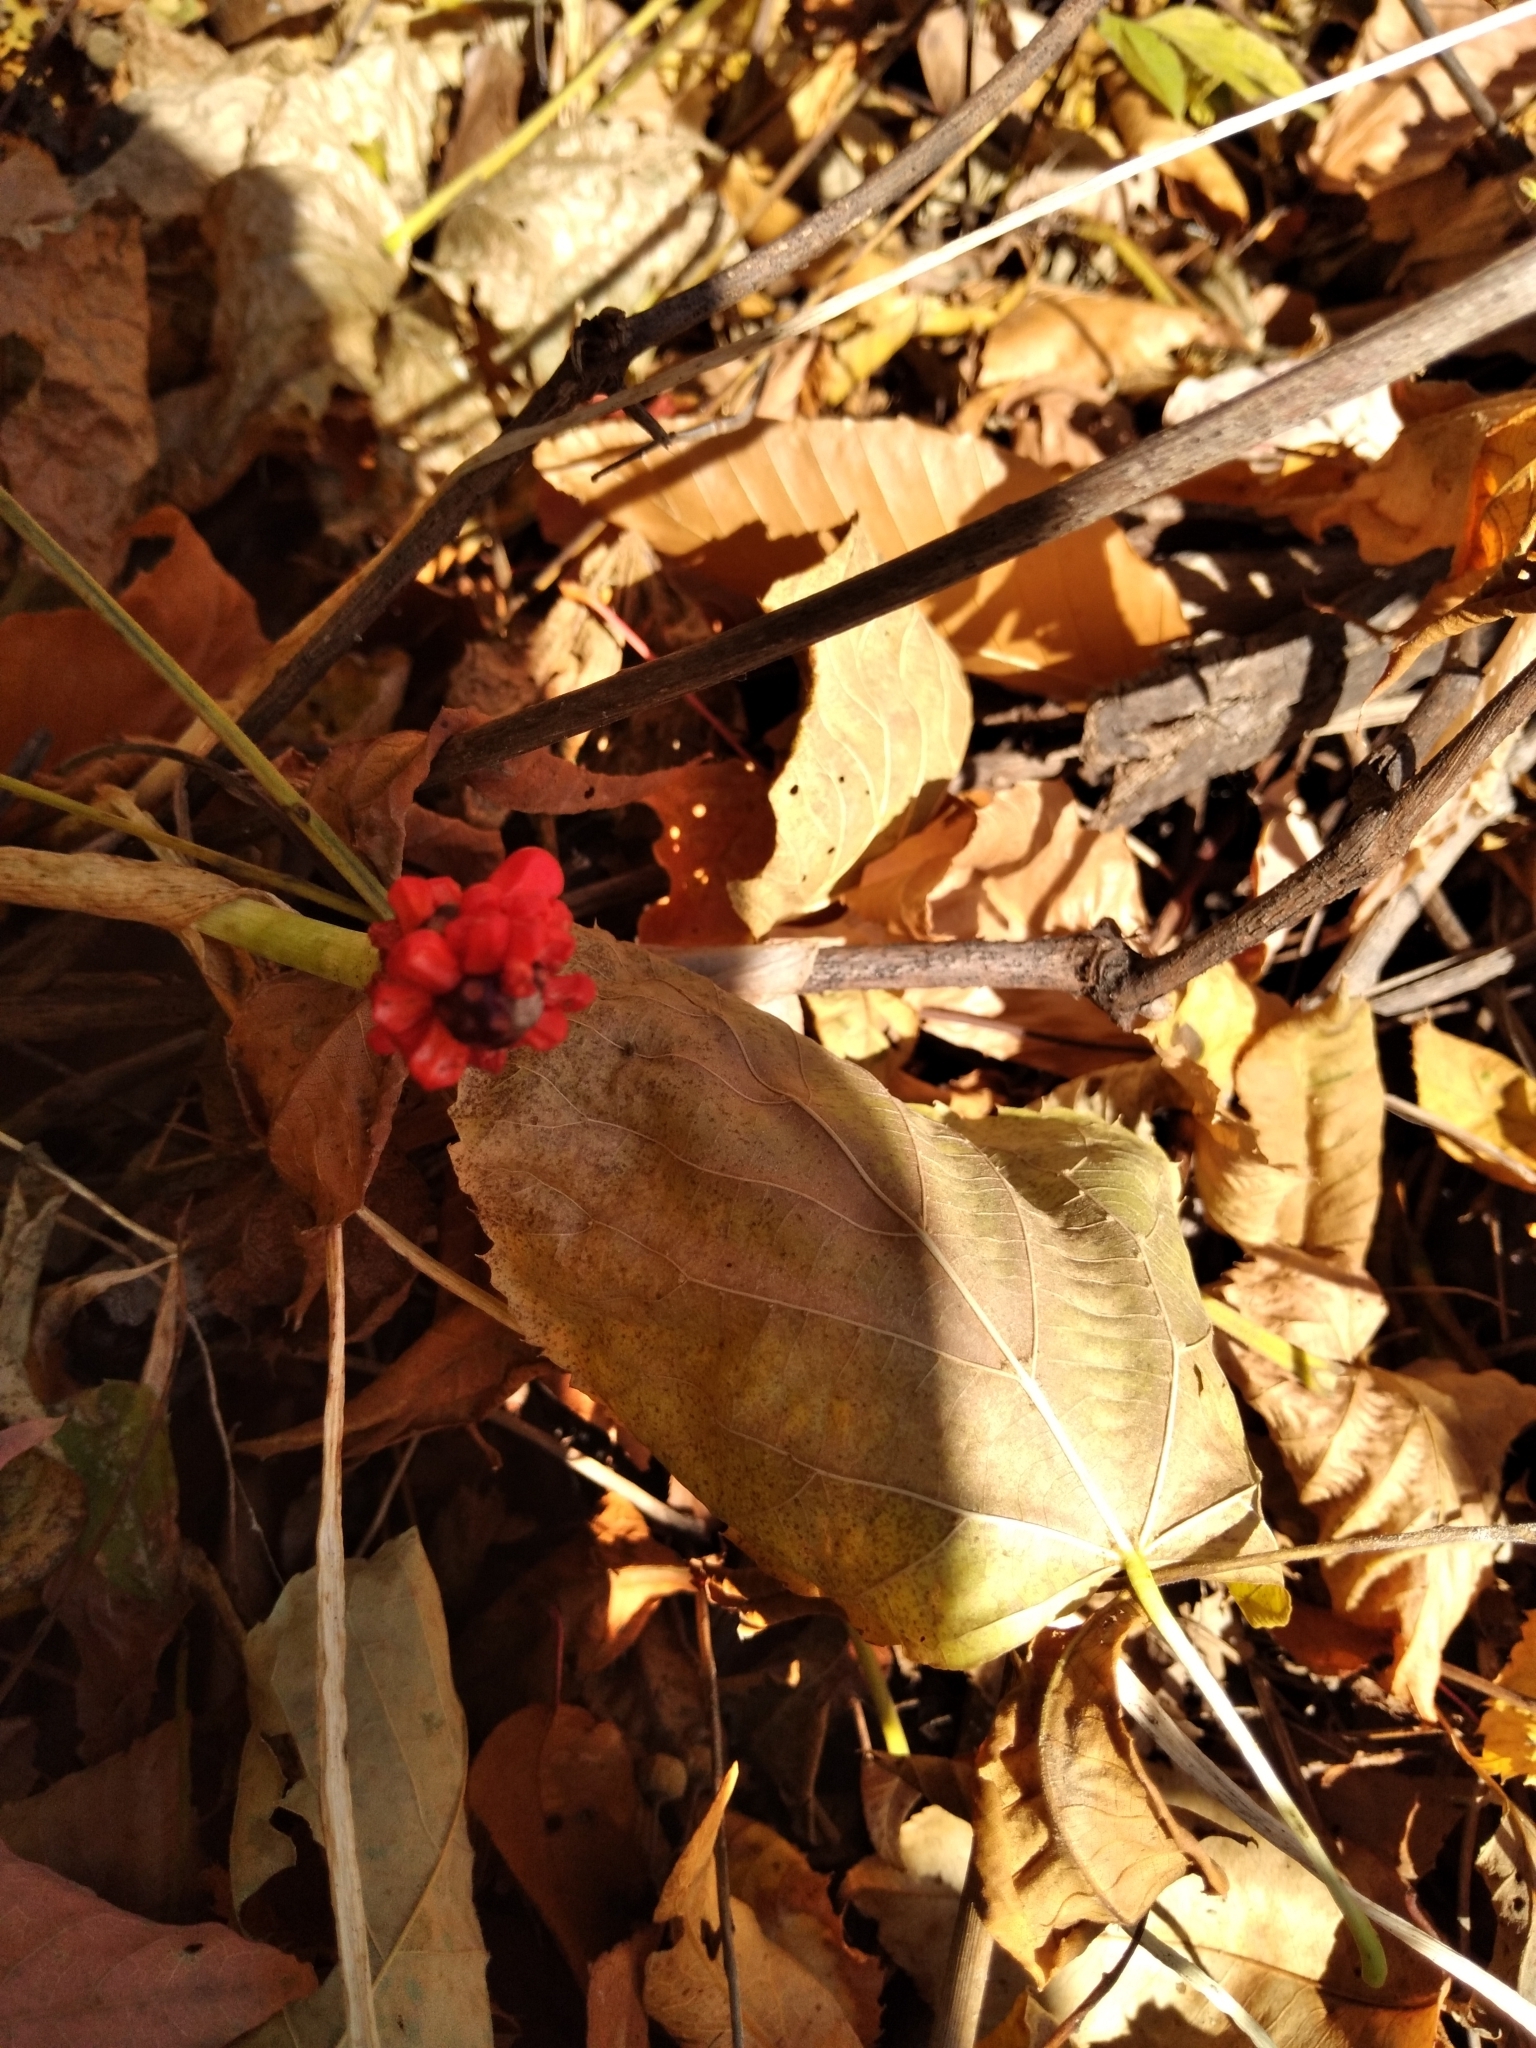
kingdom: Plantae
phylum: Tracheophyta
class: Liliopsida
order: Alismatales
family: Araceae
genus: Arisaema
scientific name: Arisaema triphyllum
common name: Jack-in-the-pulpit
